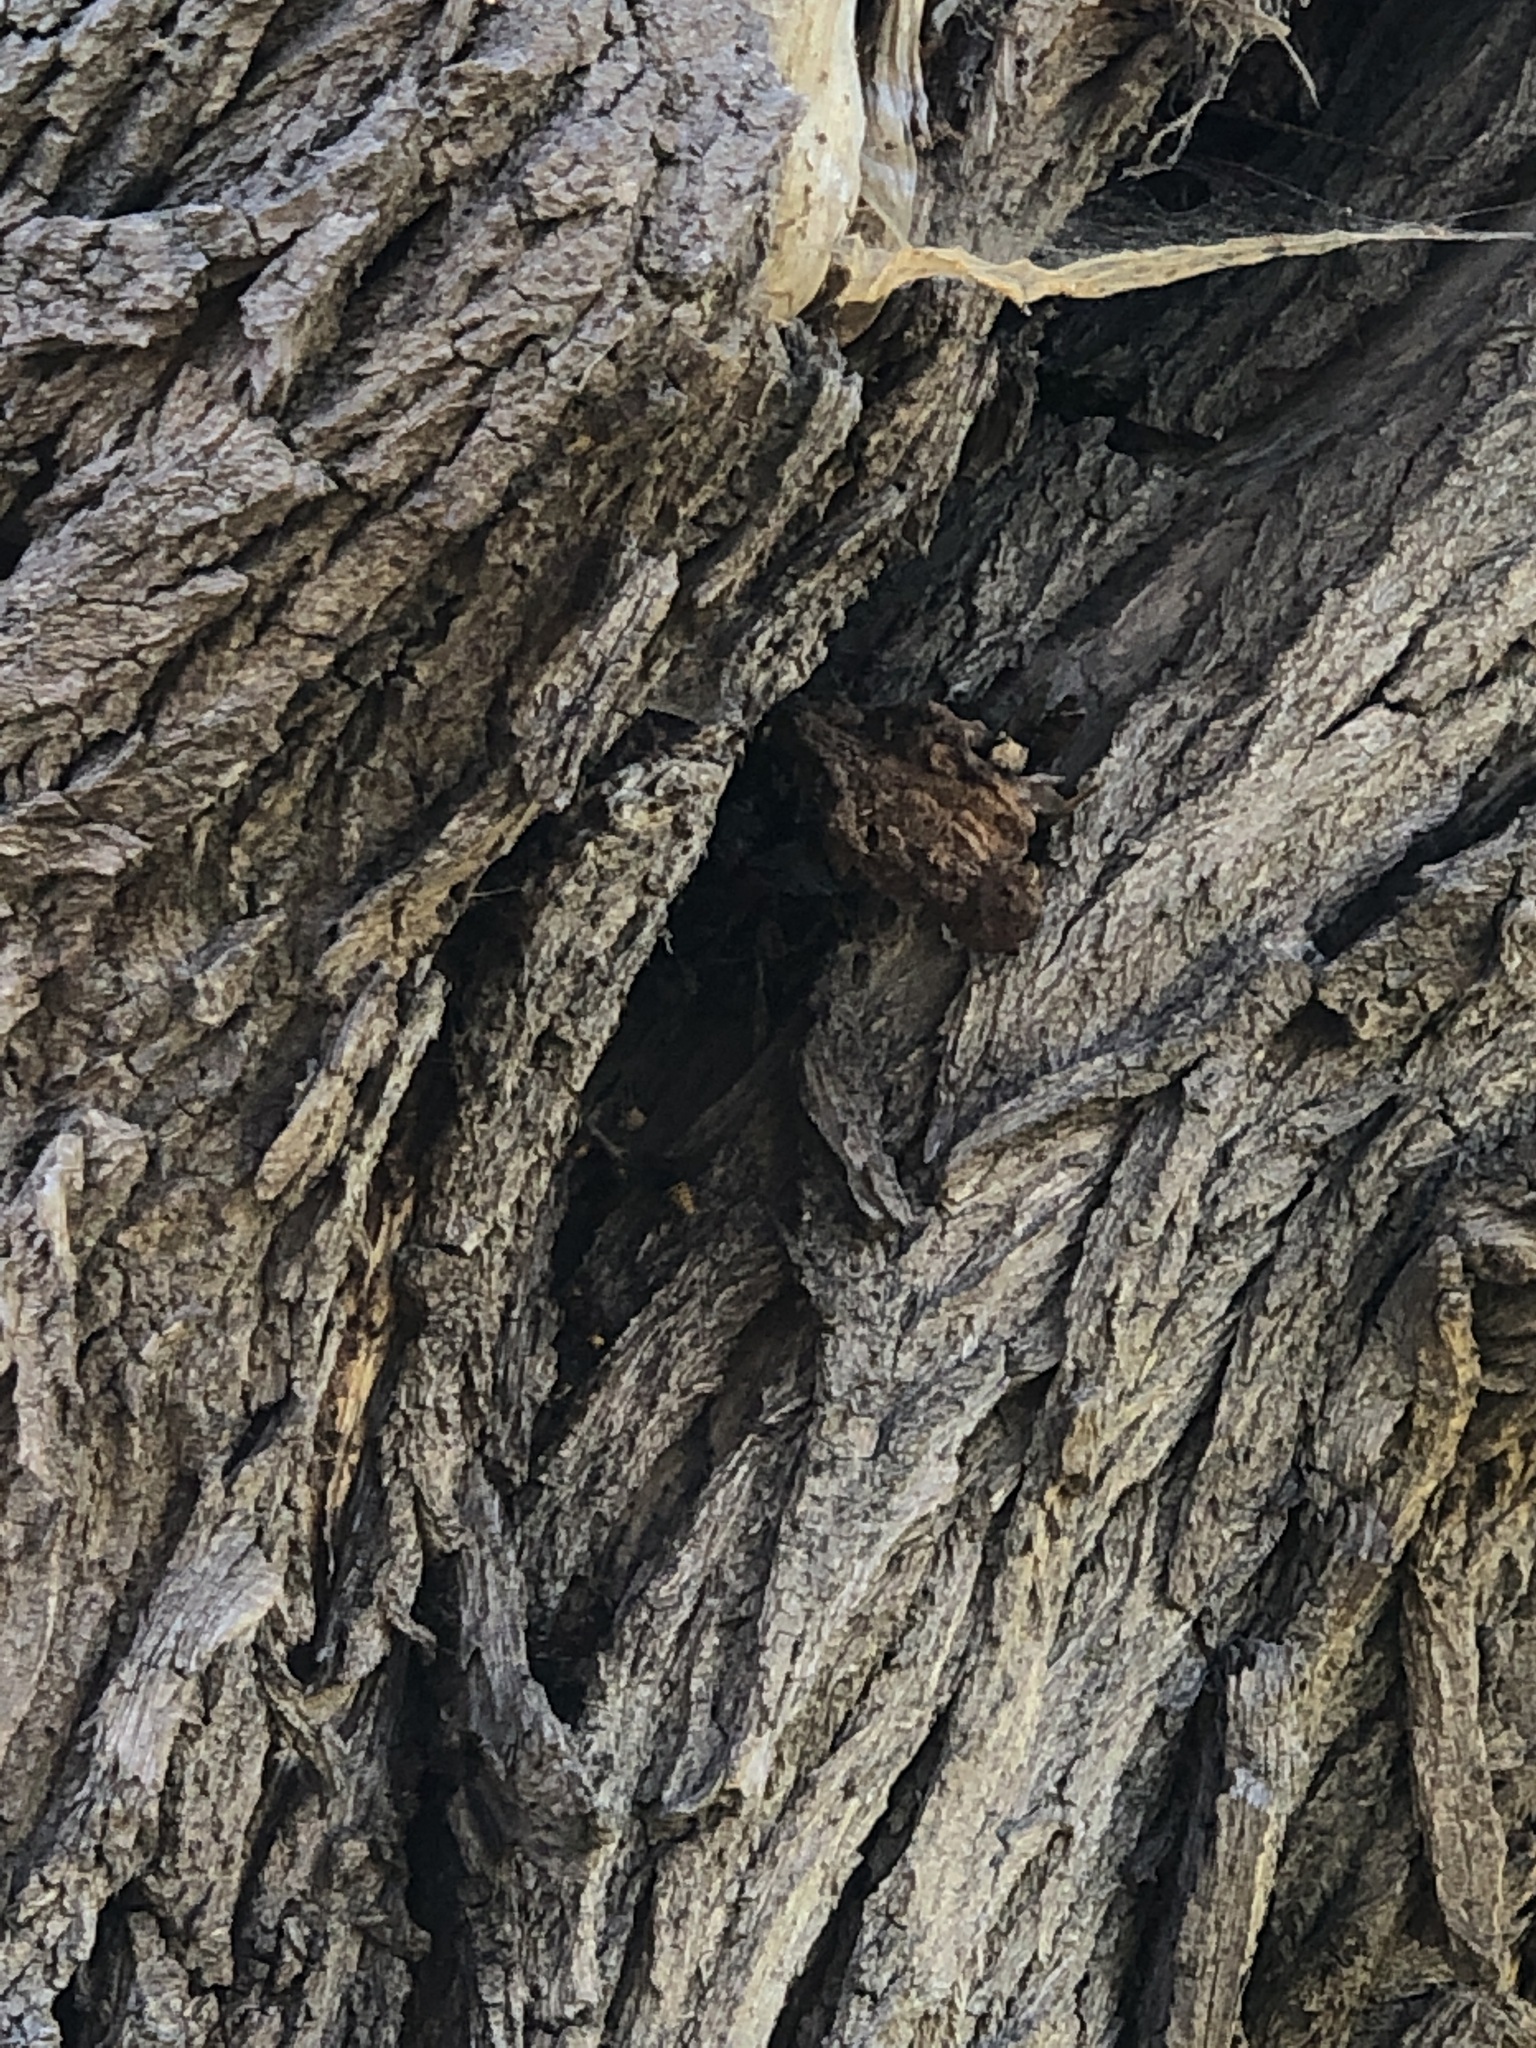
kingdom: Animalia
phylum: Arthropoda
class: Insecta
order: Hymenoptera
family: Vespidae
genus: Vespa
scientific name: Vespa crabro
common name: Hornet
